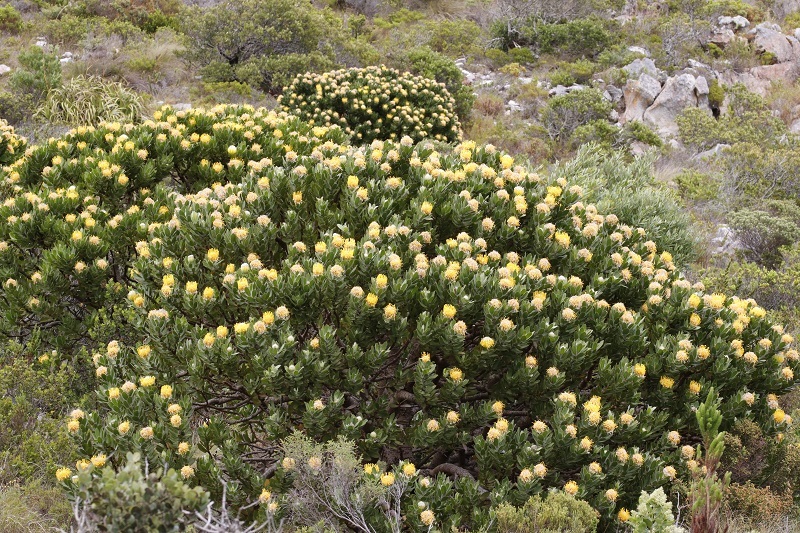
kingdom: Plantae
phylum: Tracheophyta
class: Magnoliopsida
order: Proteales
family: Proteaceae
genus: Leucospermum
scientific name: Leucospermum conocarpodendron
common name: Tree pincushion
